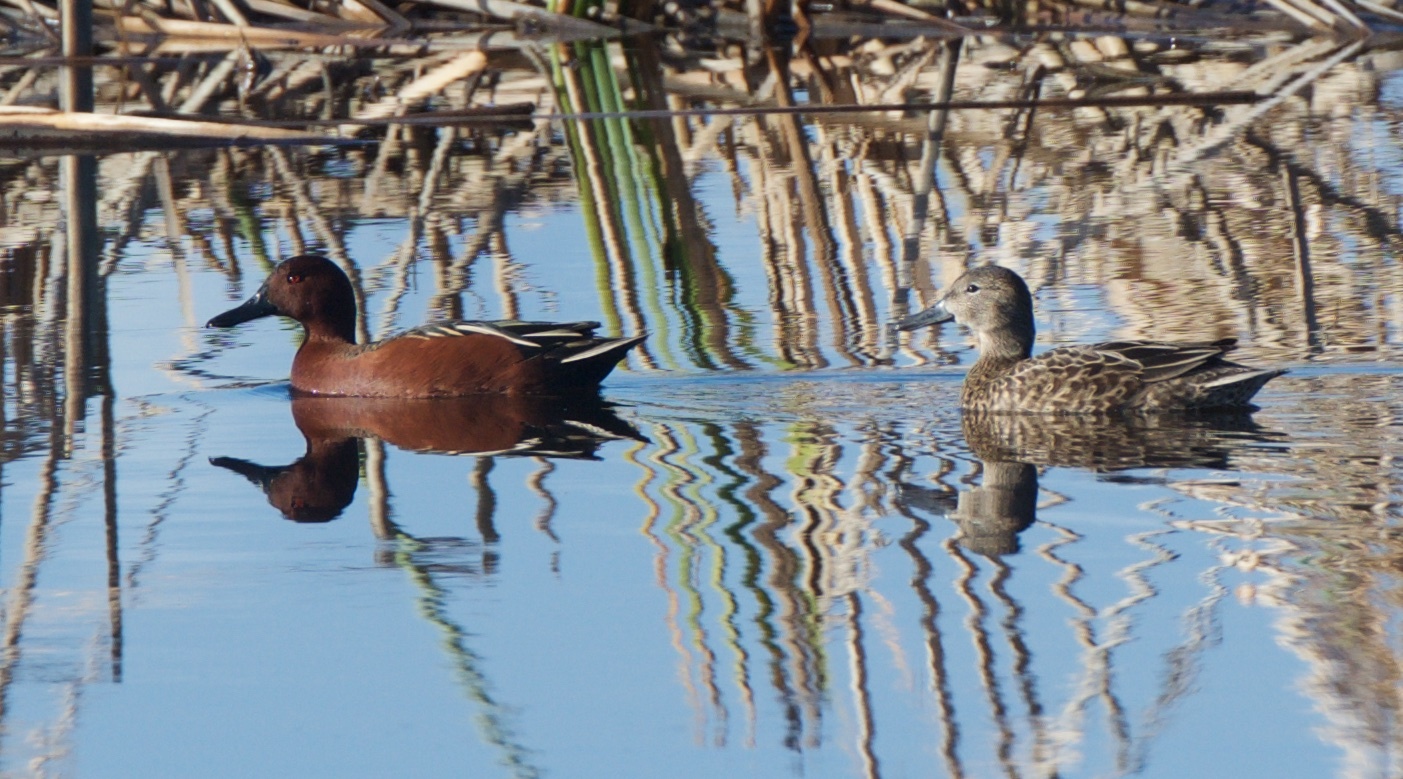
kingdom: Animalia
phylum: Chordata
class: Aves
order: Anseriformes
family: Anatidae
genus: Spatula
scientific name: Spatula cyanoptera
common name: Cinnamon teal
